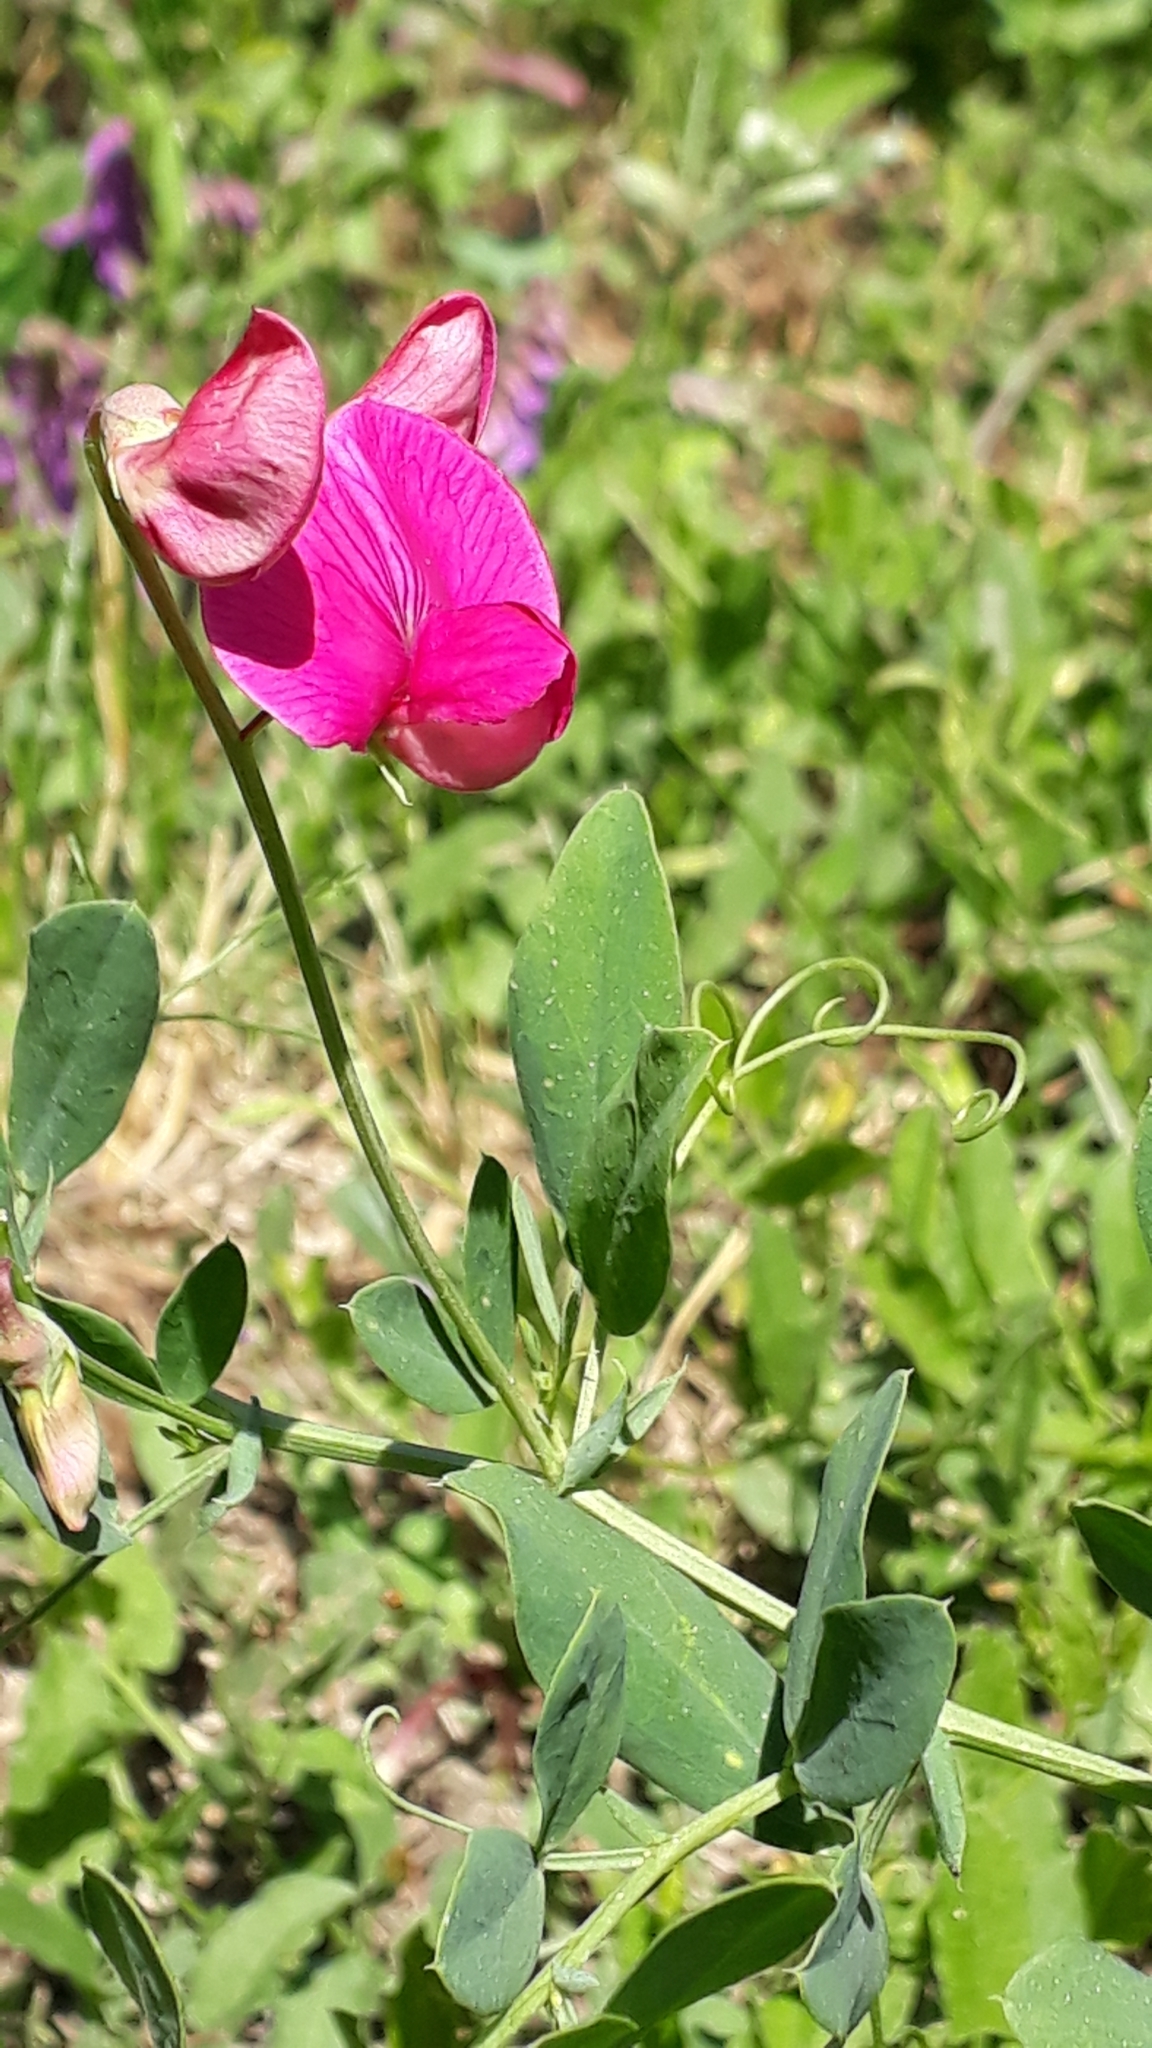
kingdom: Plantae
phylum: Tracheophyta
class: Magnoliopsida
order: Fabales
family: Fabaceae
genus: Lathyrus
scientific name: Lathyrus tuberosus
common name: Tuberous pea
